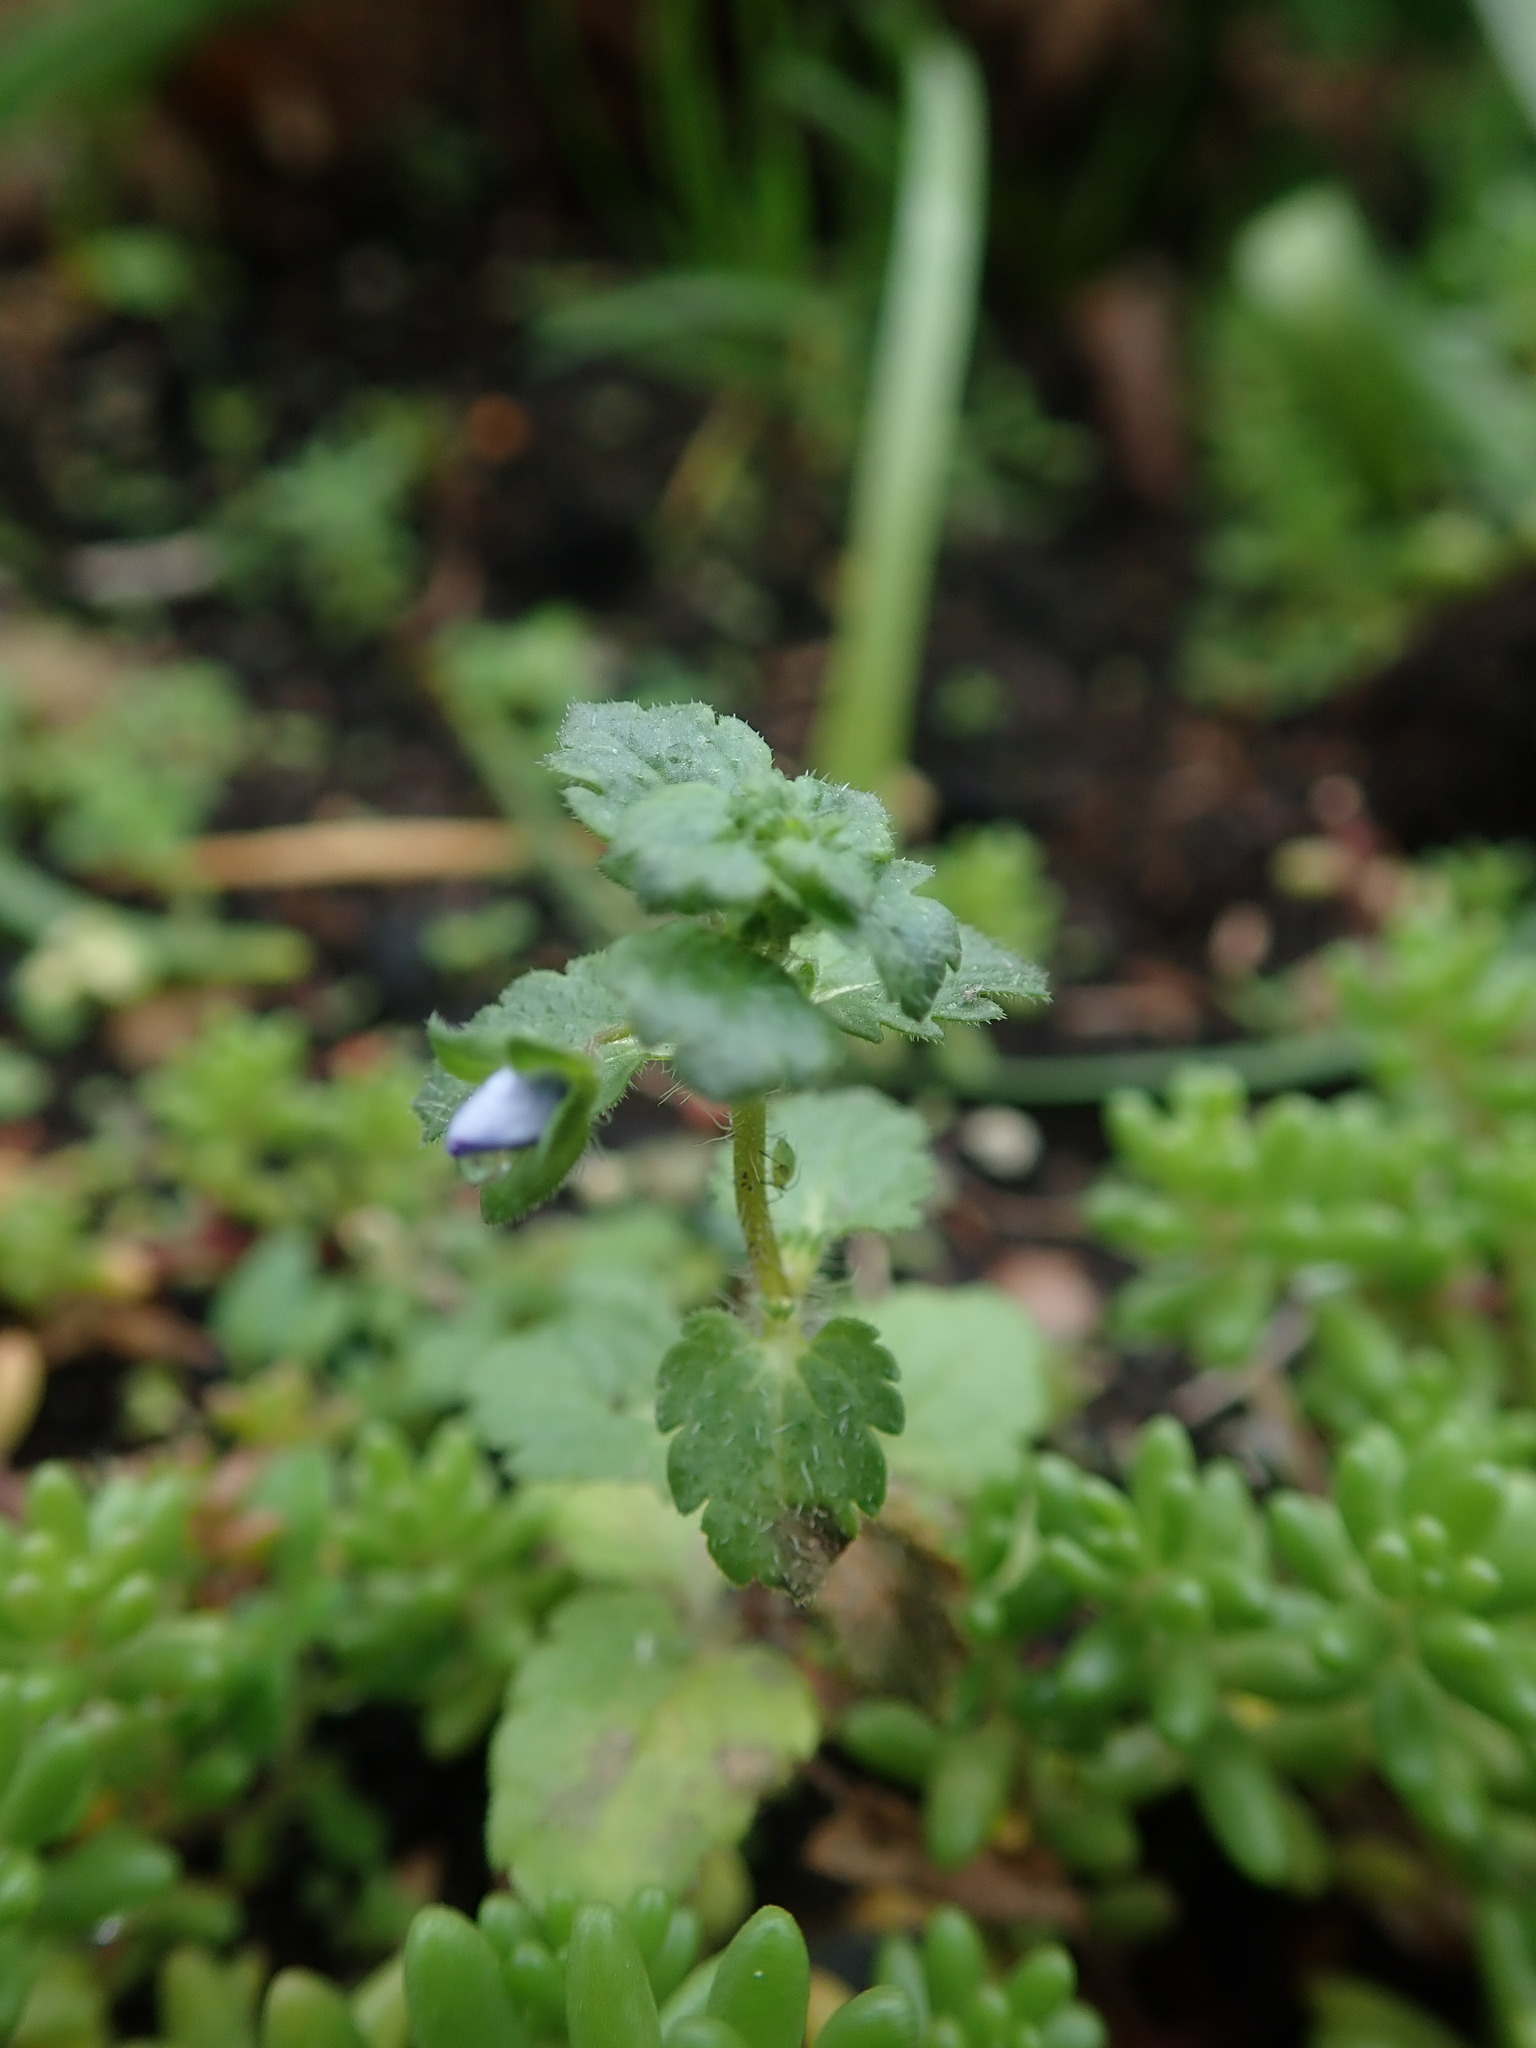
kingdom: Plantae
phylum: Tracheophyta
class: Magnoliopsida
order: Lamiales
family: Plantaginaceae
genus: Veronica
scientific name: Veronica persica
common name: Common field-speedwell
